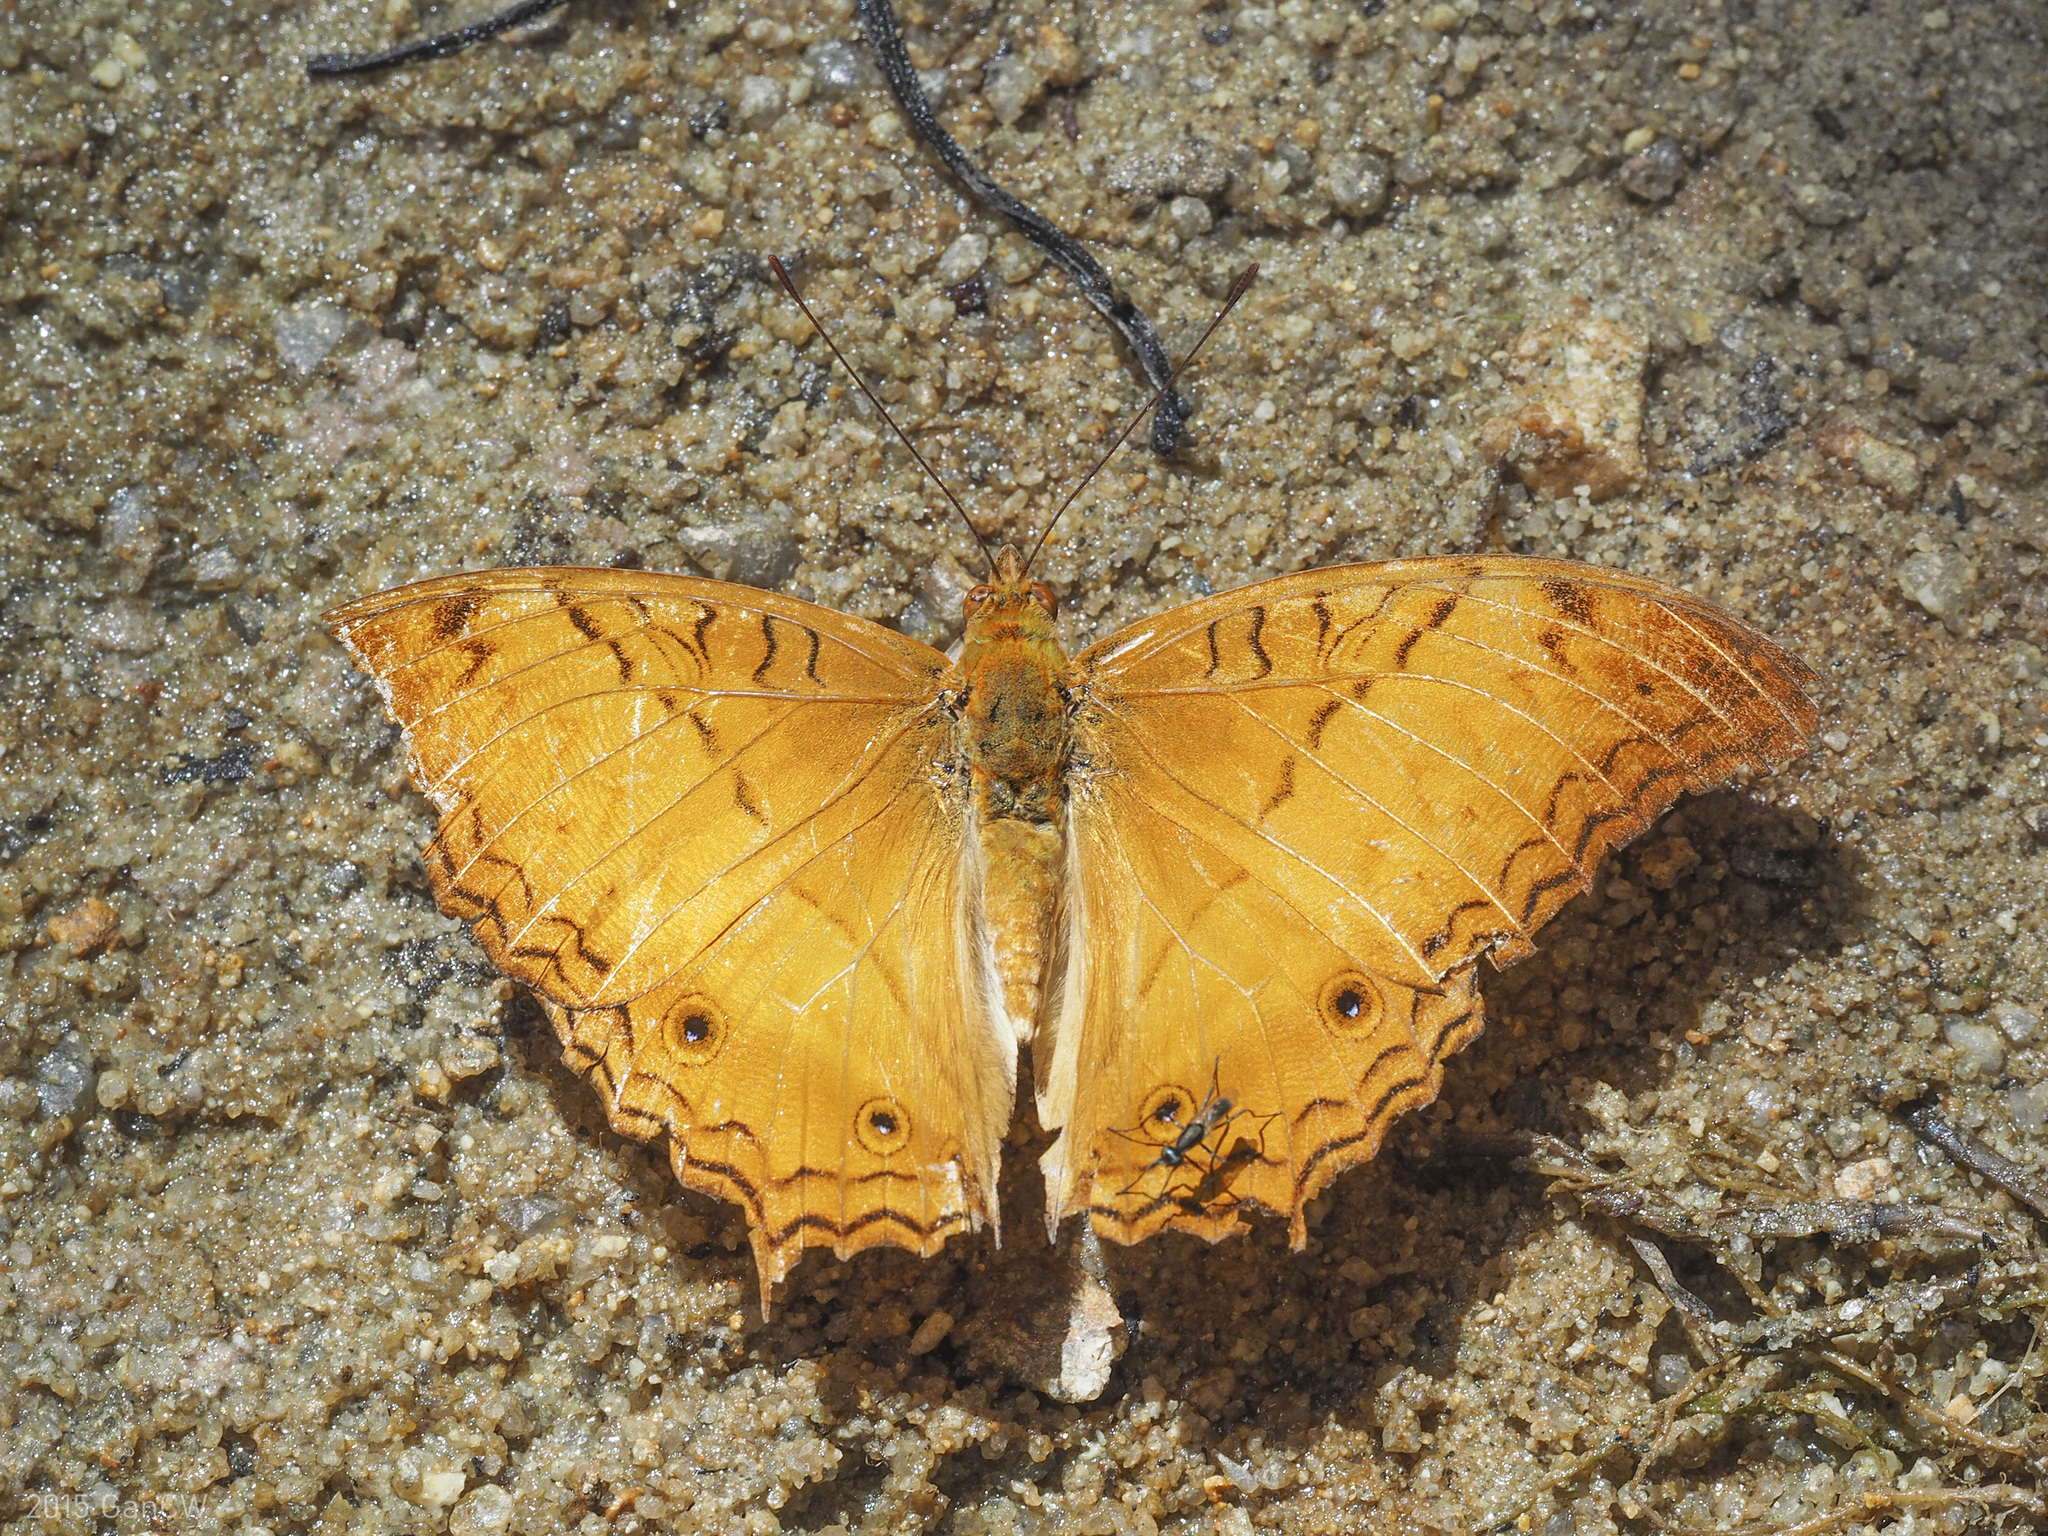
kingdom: Animalia
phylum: Arthropoda
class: Insecta
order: Lepidoptera
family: Nymphalidae
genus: Vindula
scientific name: Vindula deione
